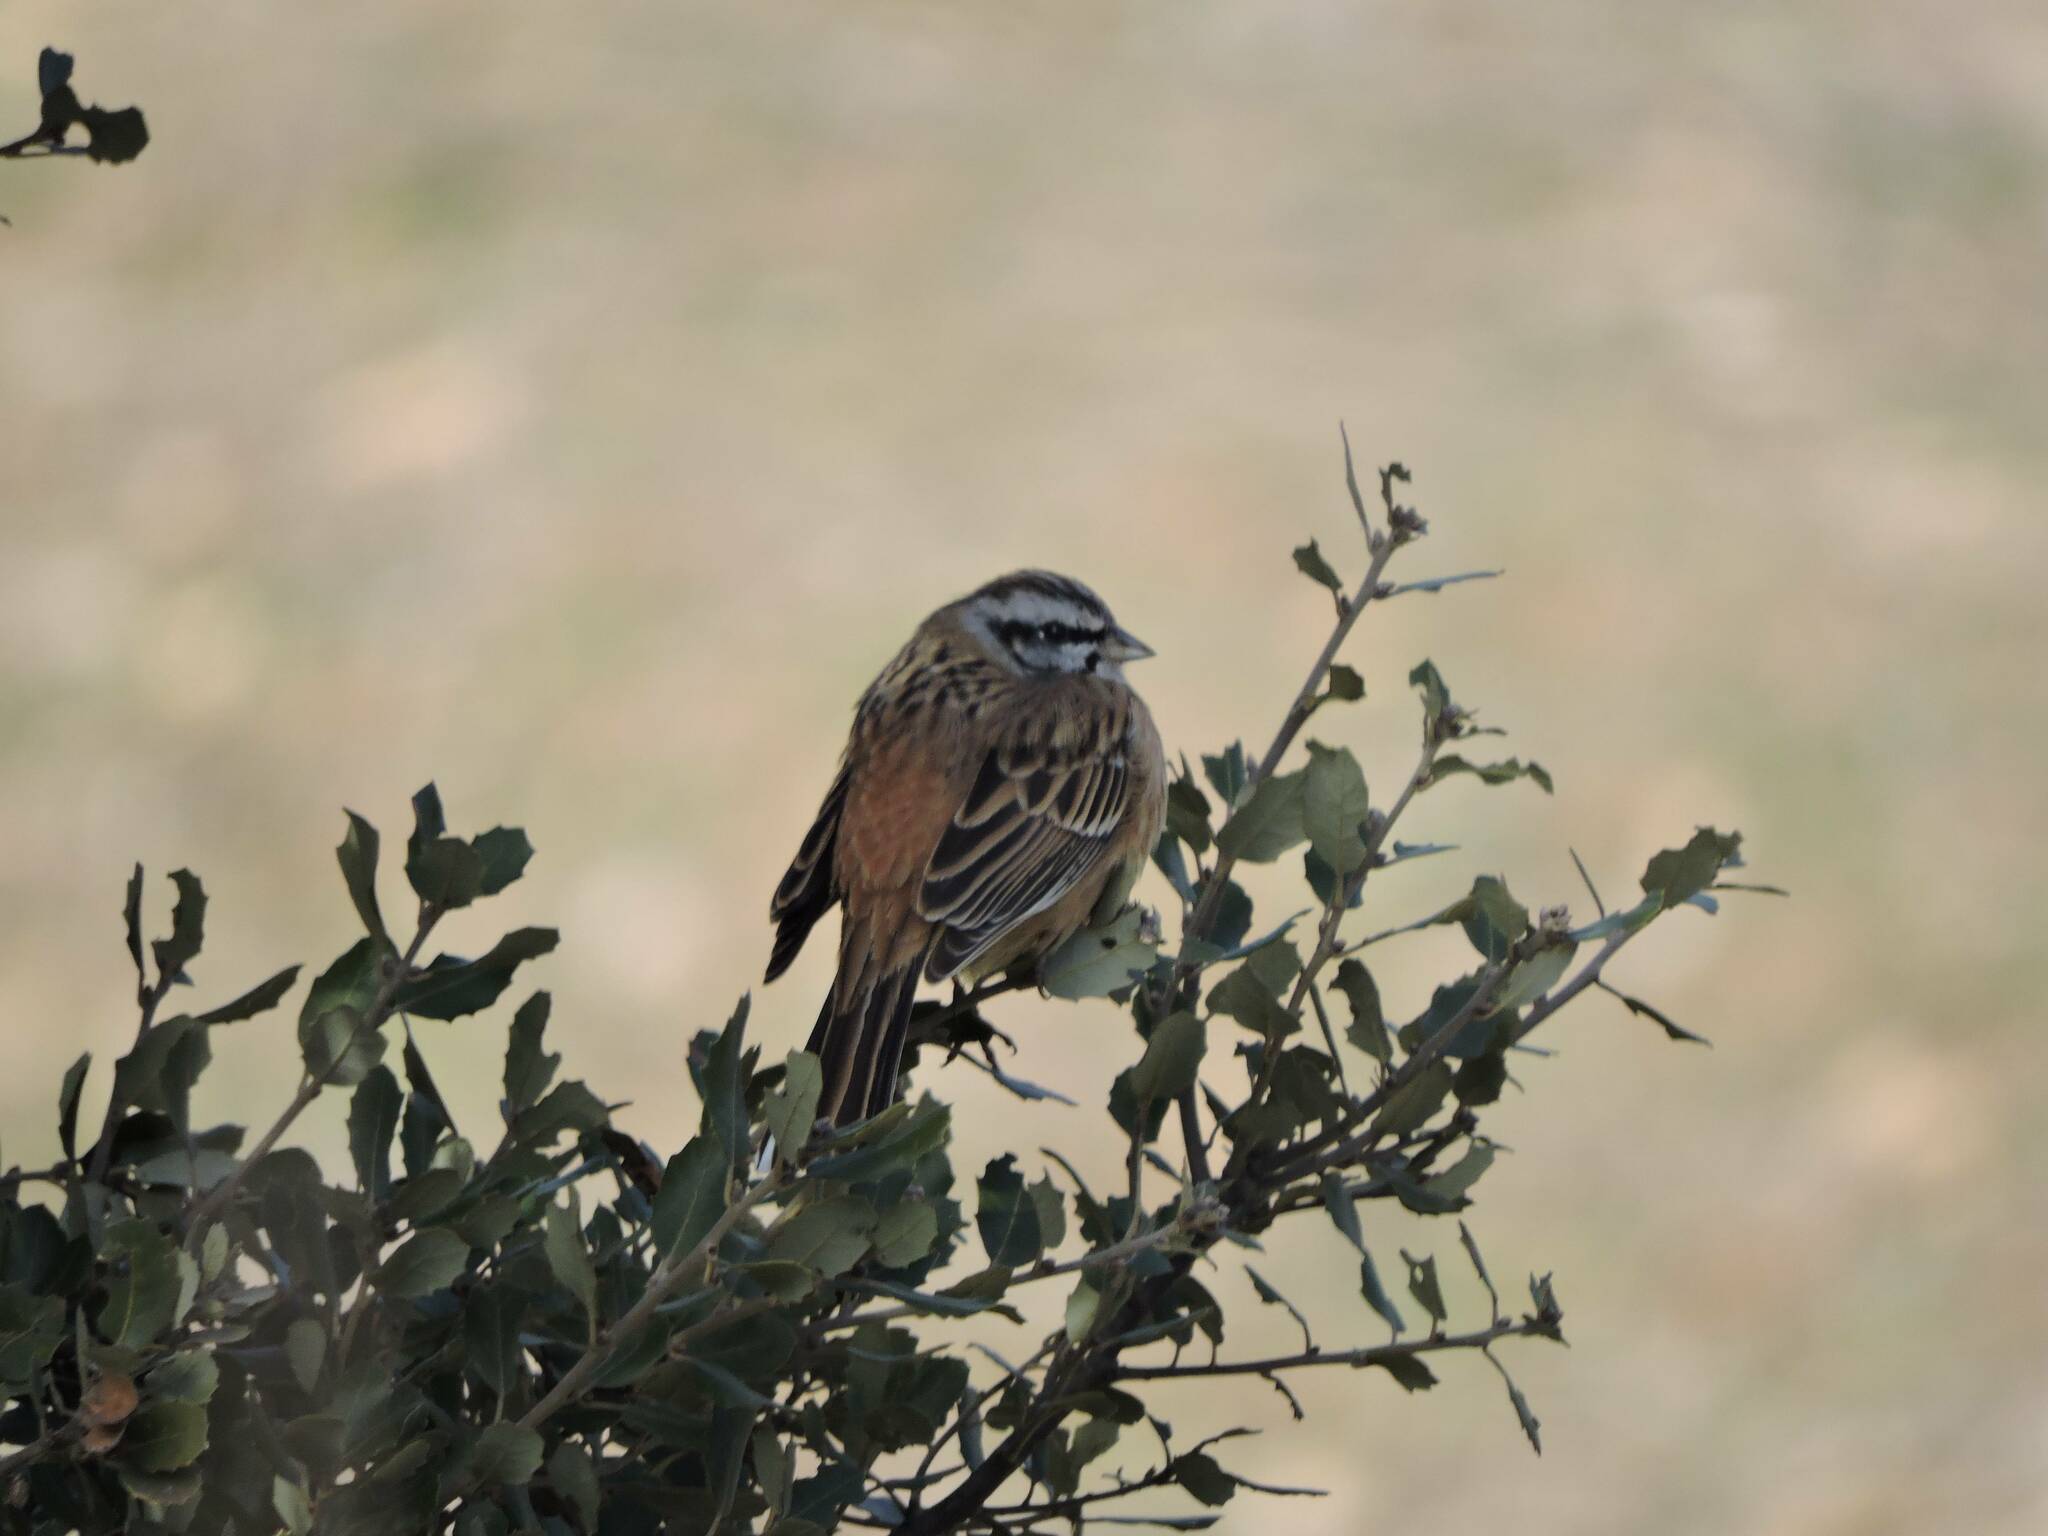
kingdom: Animalia
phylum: Chordata
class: Aves
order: Passeriformes
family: Emberizidae
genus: Emberiza
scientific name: Emberiza cia
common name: Rock bunting
